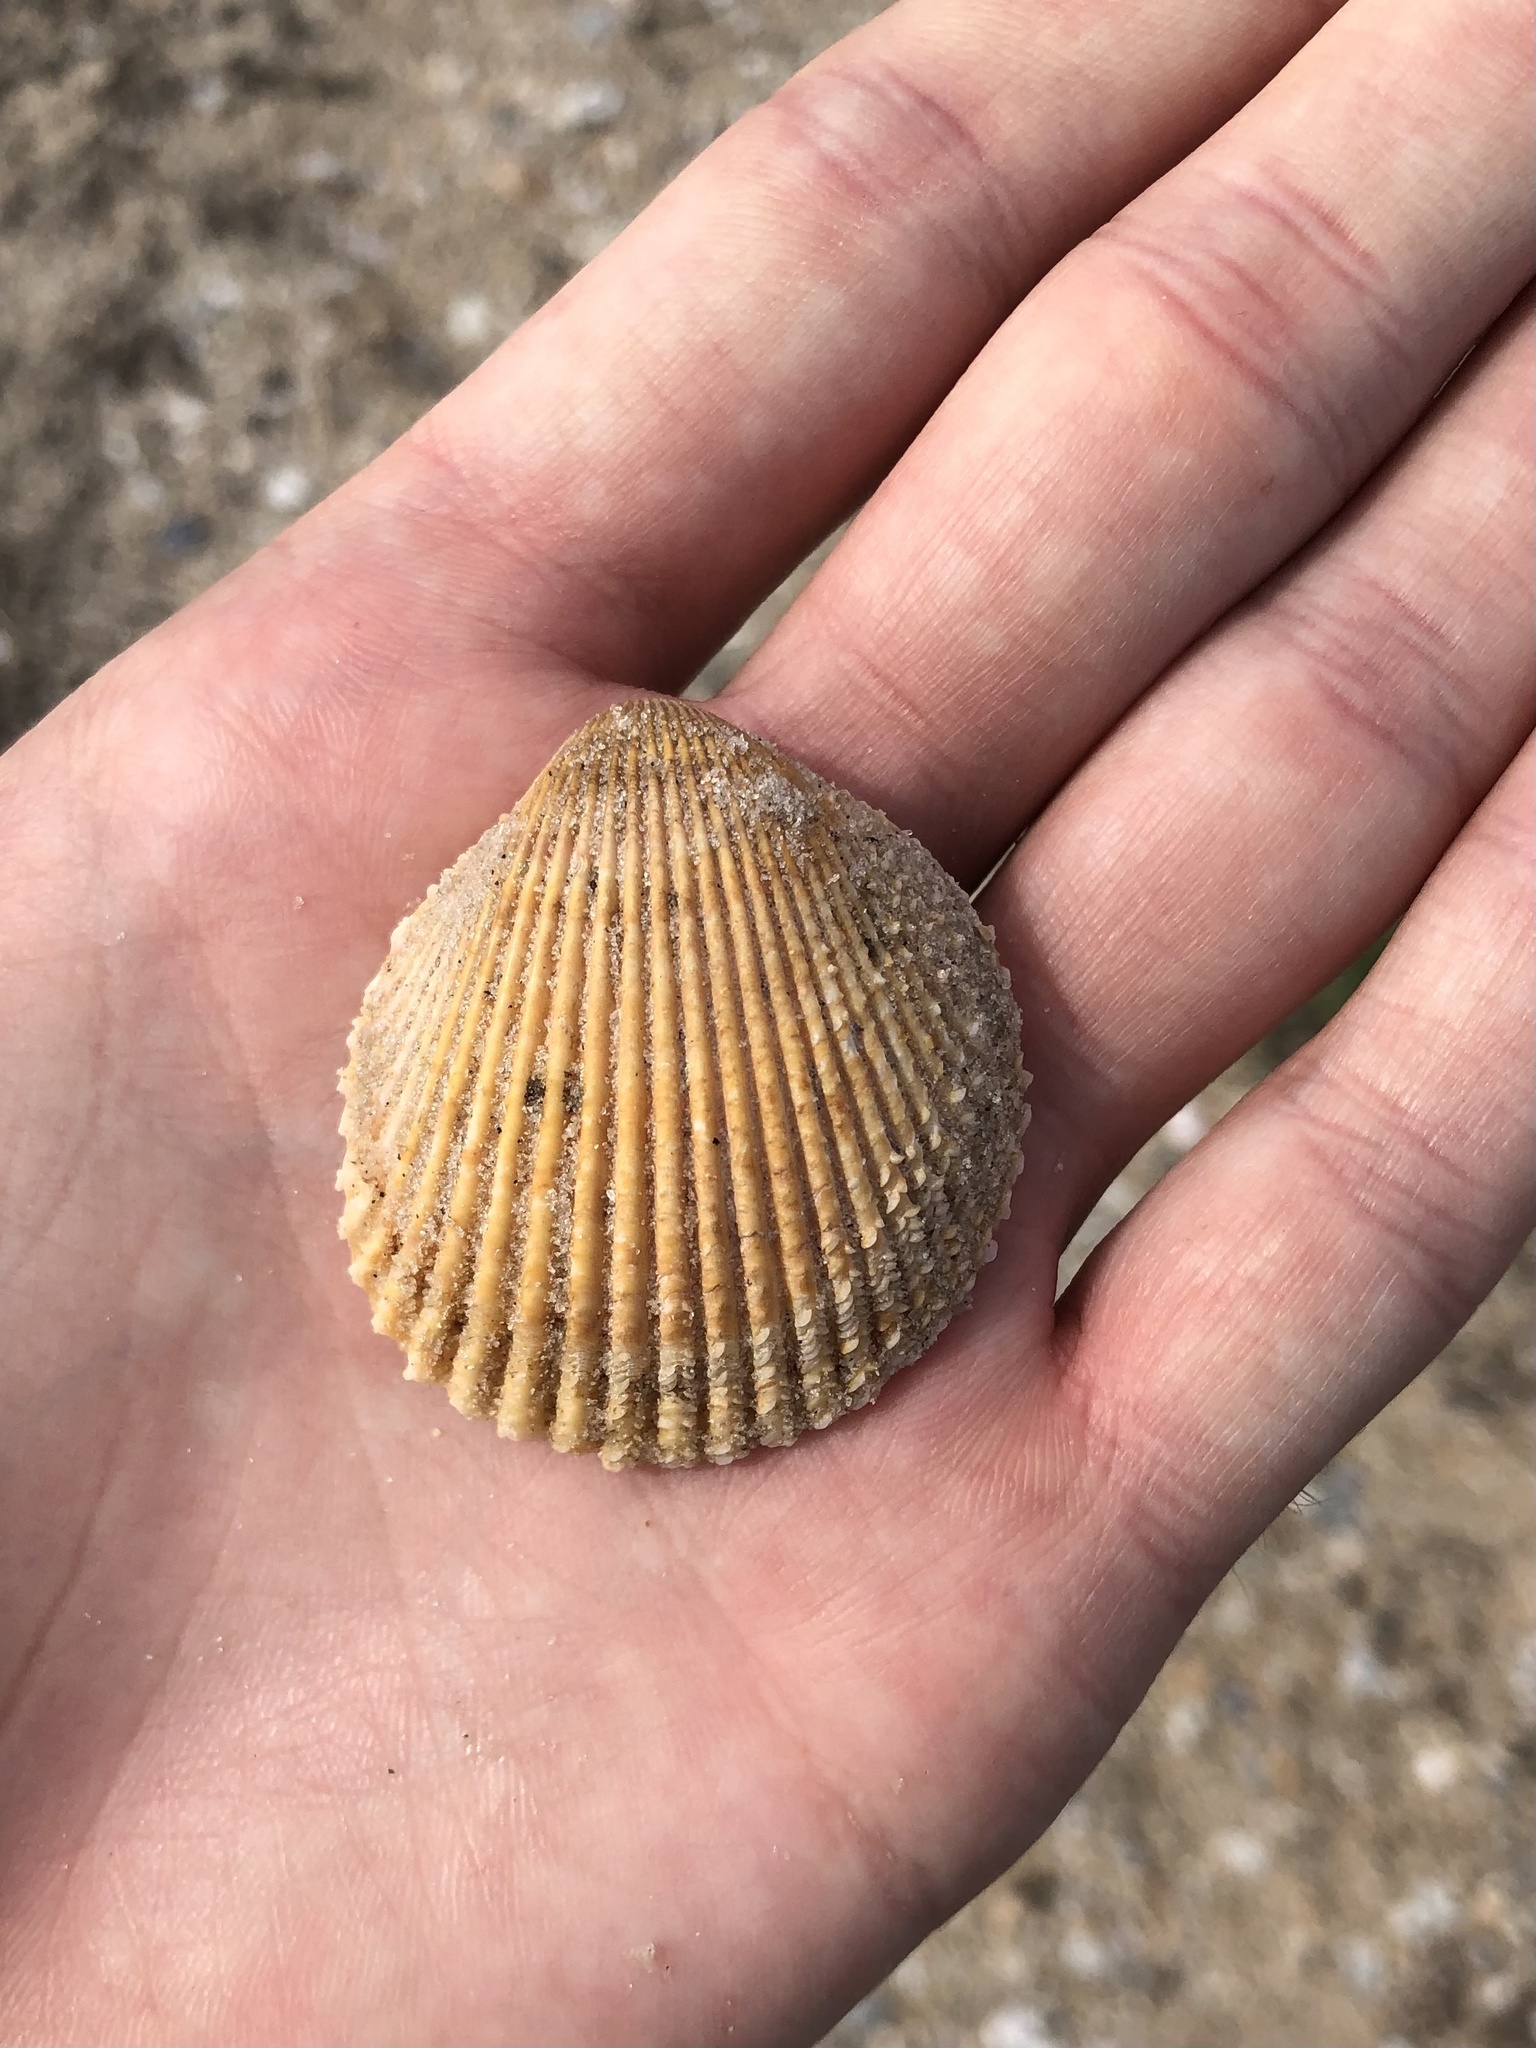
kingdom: Animalia
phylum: Mollusca
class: Bivalvia
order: Cardiida
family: Cardiidae
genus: Dallocardia
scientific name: Dallocardia muricata
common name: Yellow pricklycockle
